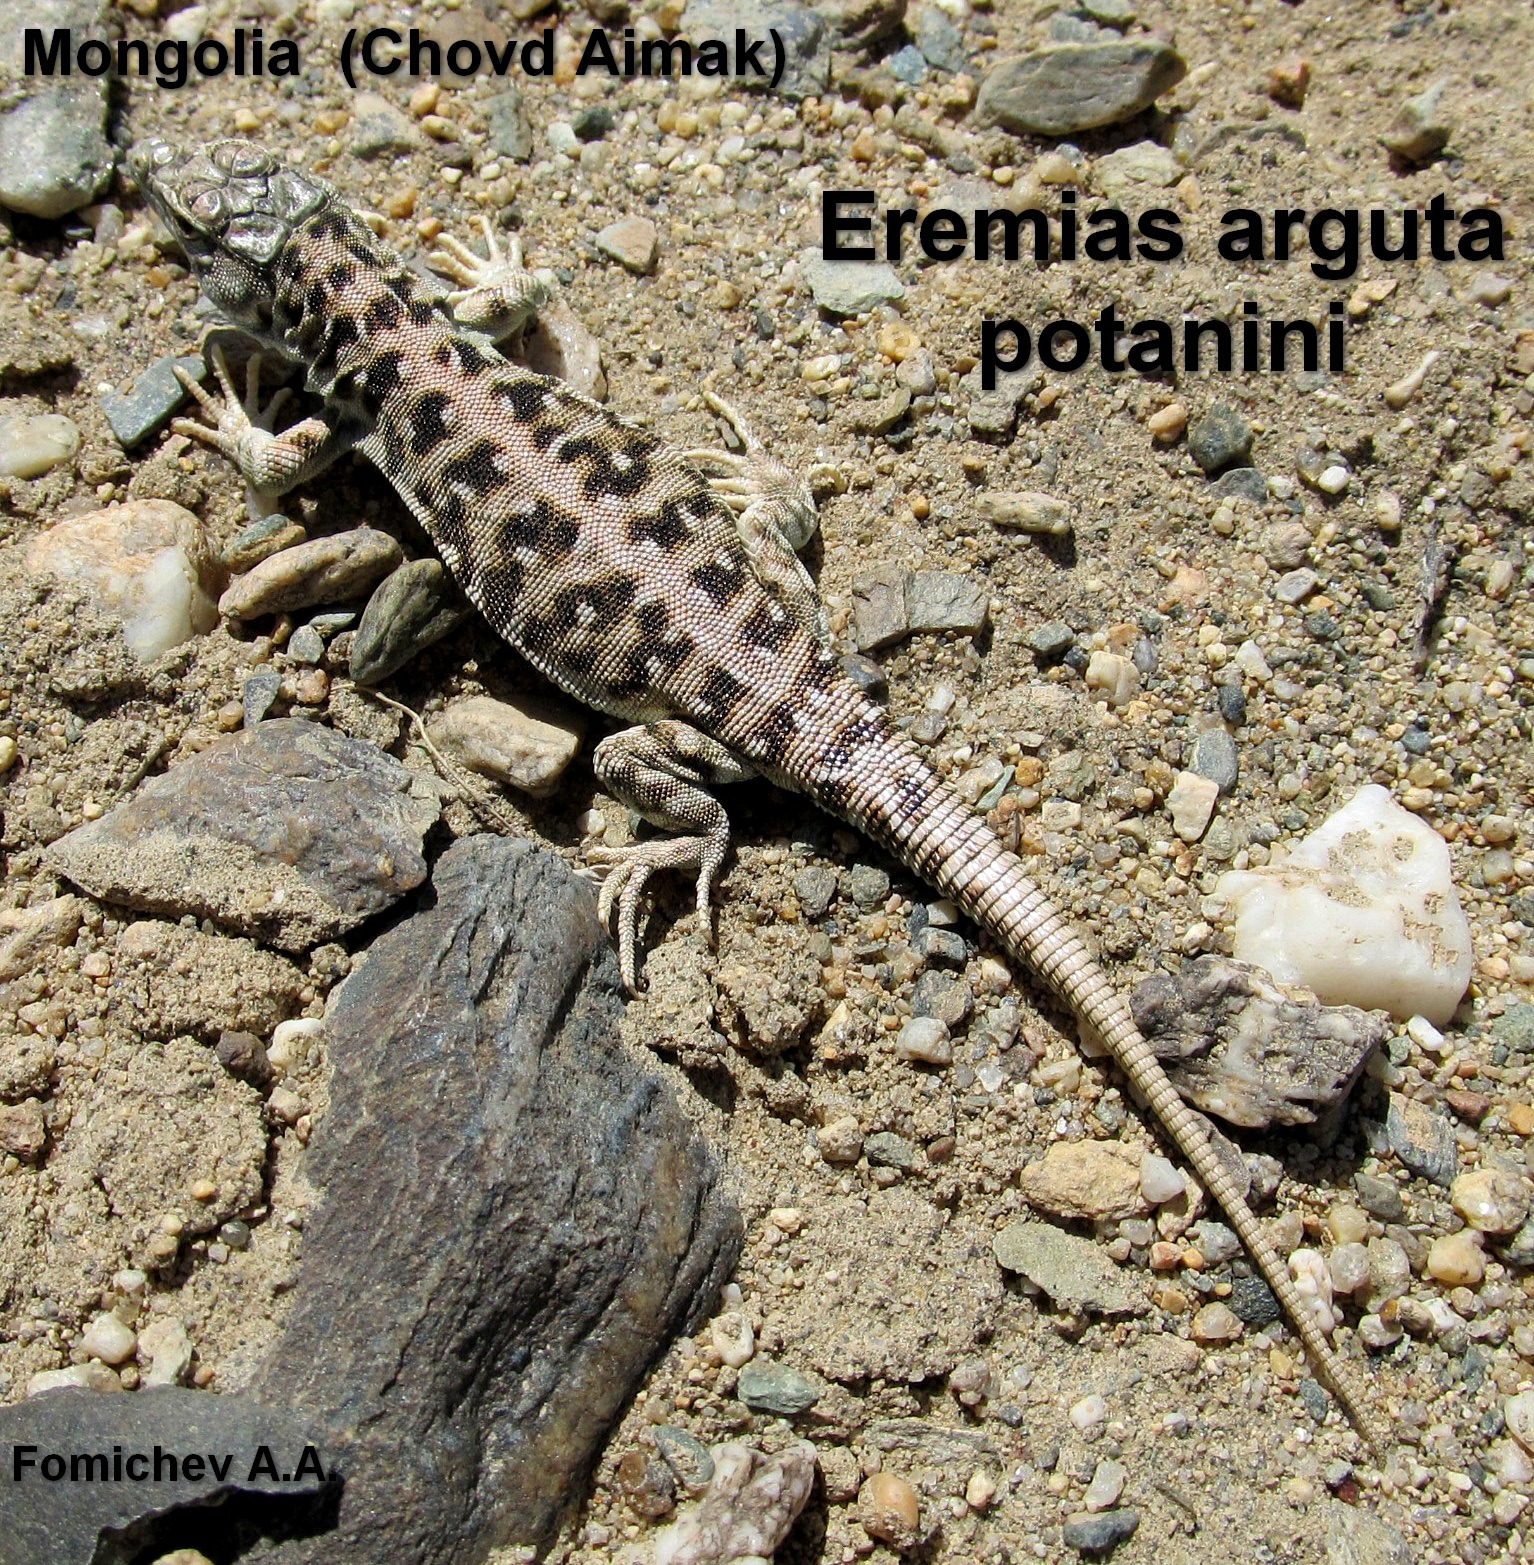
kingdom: Animalia
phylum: Chordata
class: Squamata
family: Lacertidae
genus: Eremias
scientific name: Eremias arguta
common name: Racerunner
